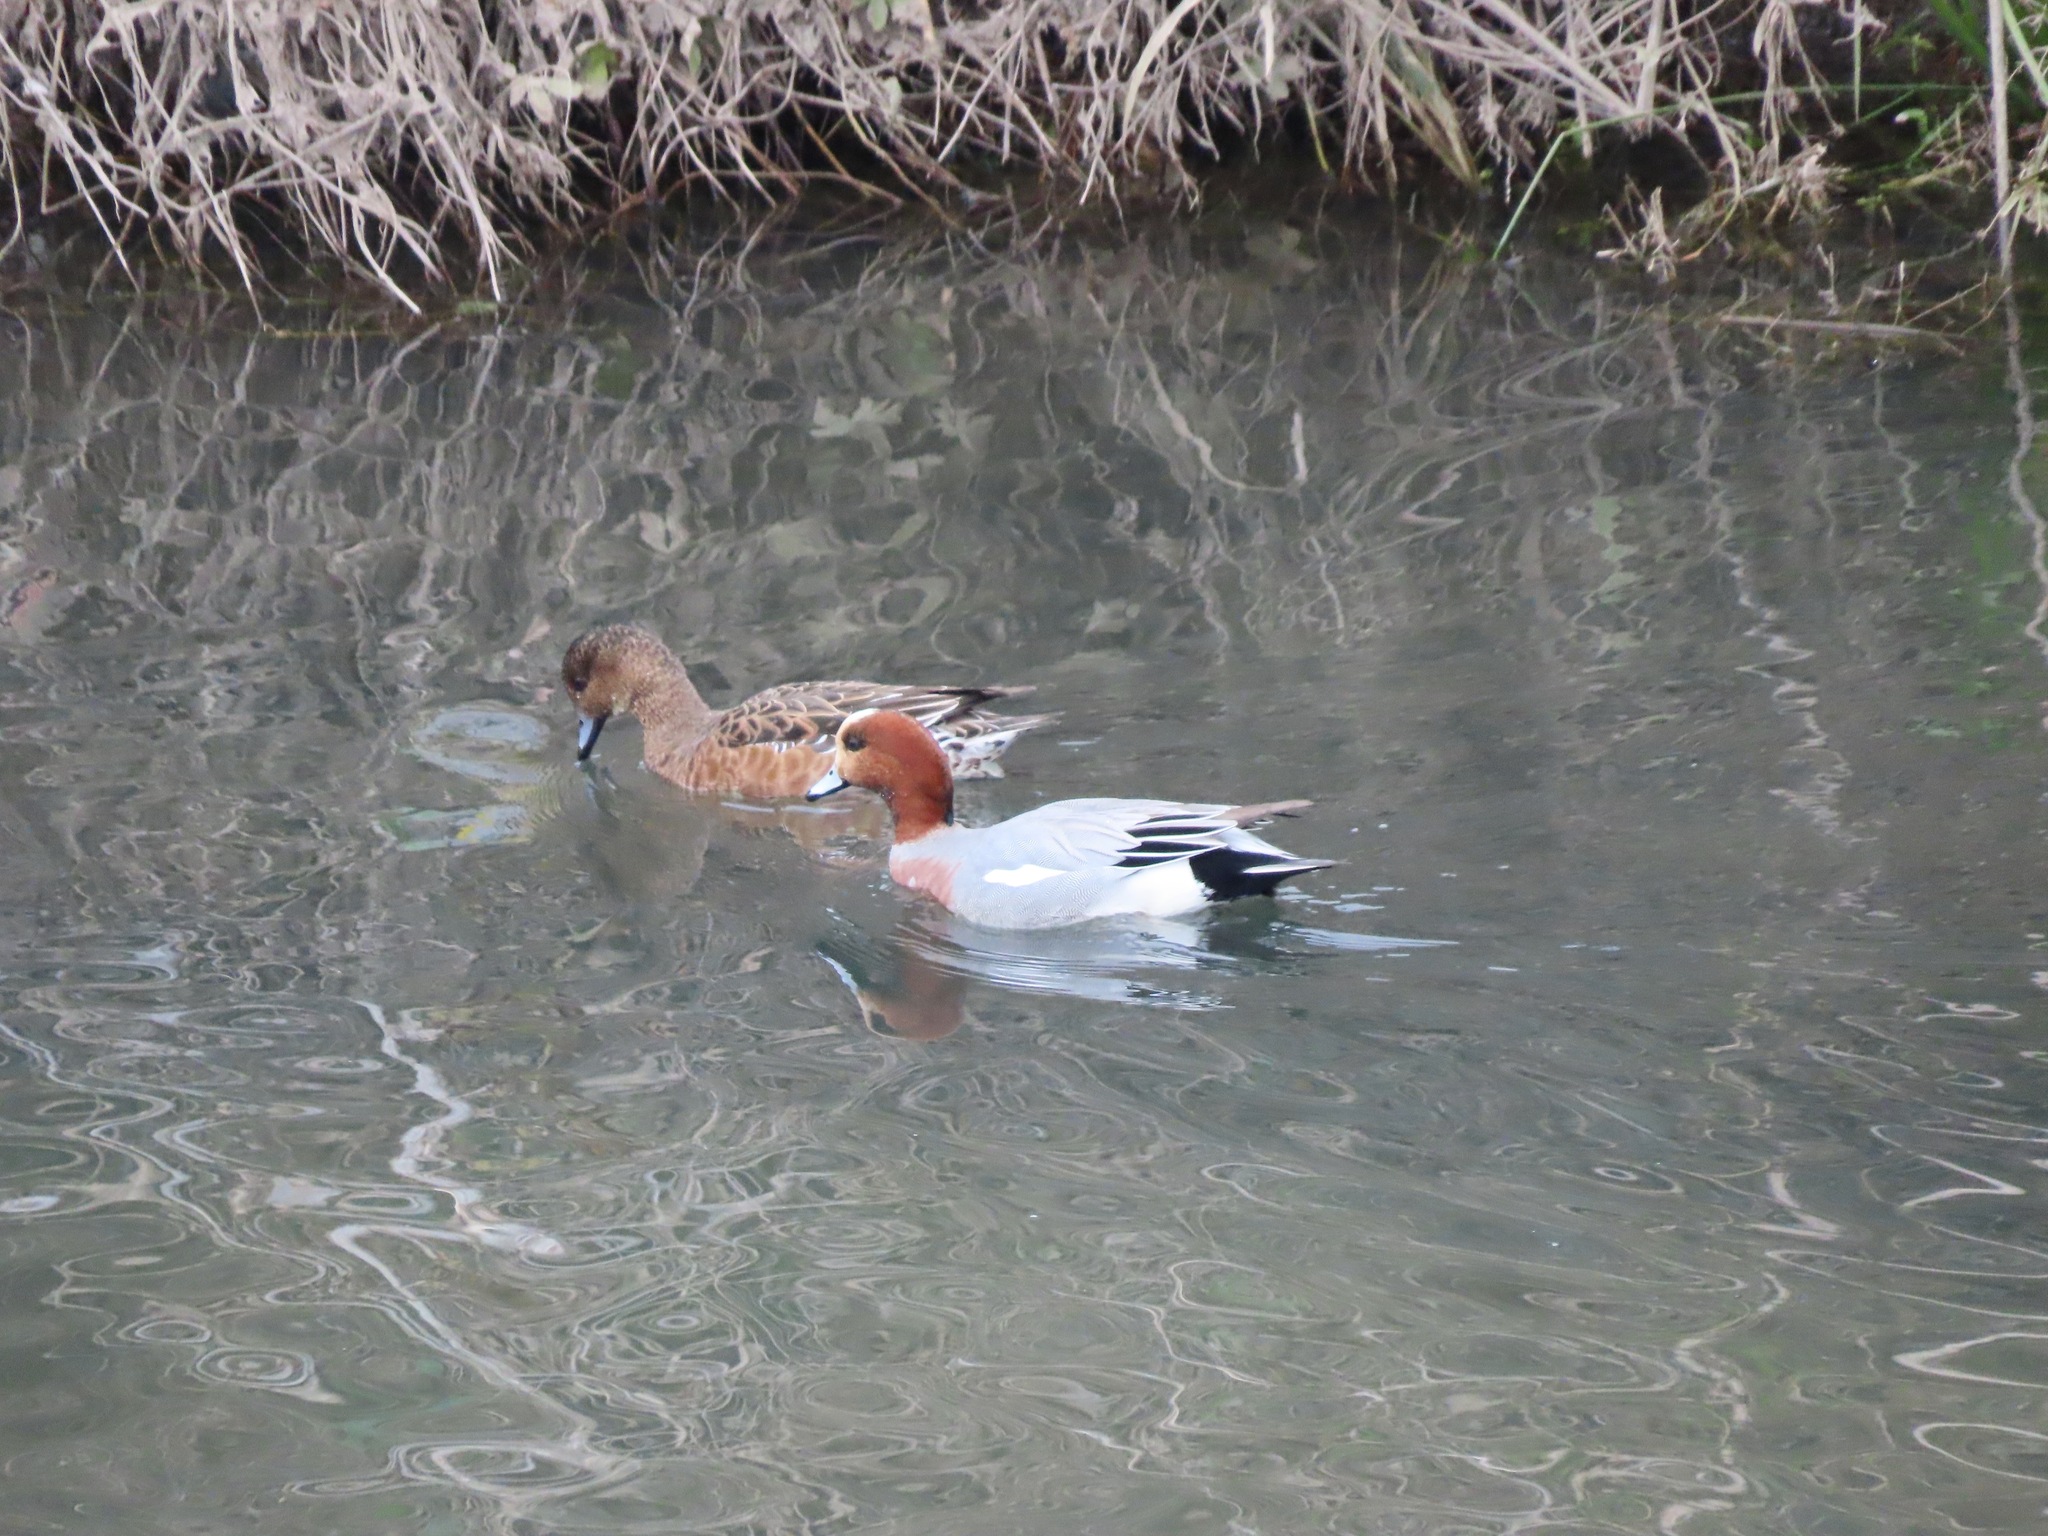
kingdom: Animalia
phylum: Chordata
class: Aves
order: Anseriformes
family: Anatidae
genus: Mareca
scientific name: Mareca penelope
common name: Eurasian wigeon
